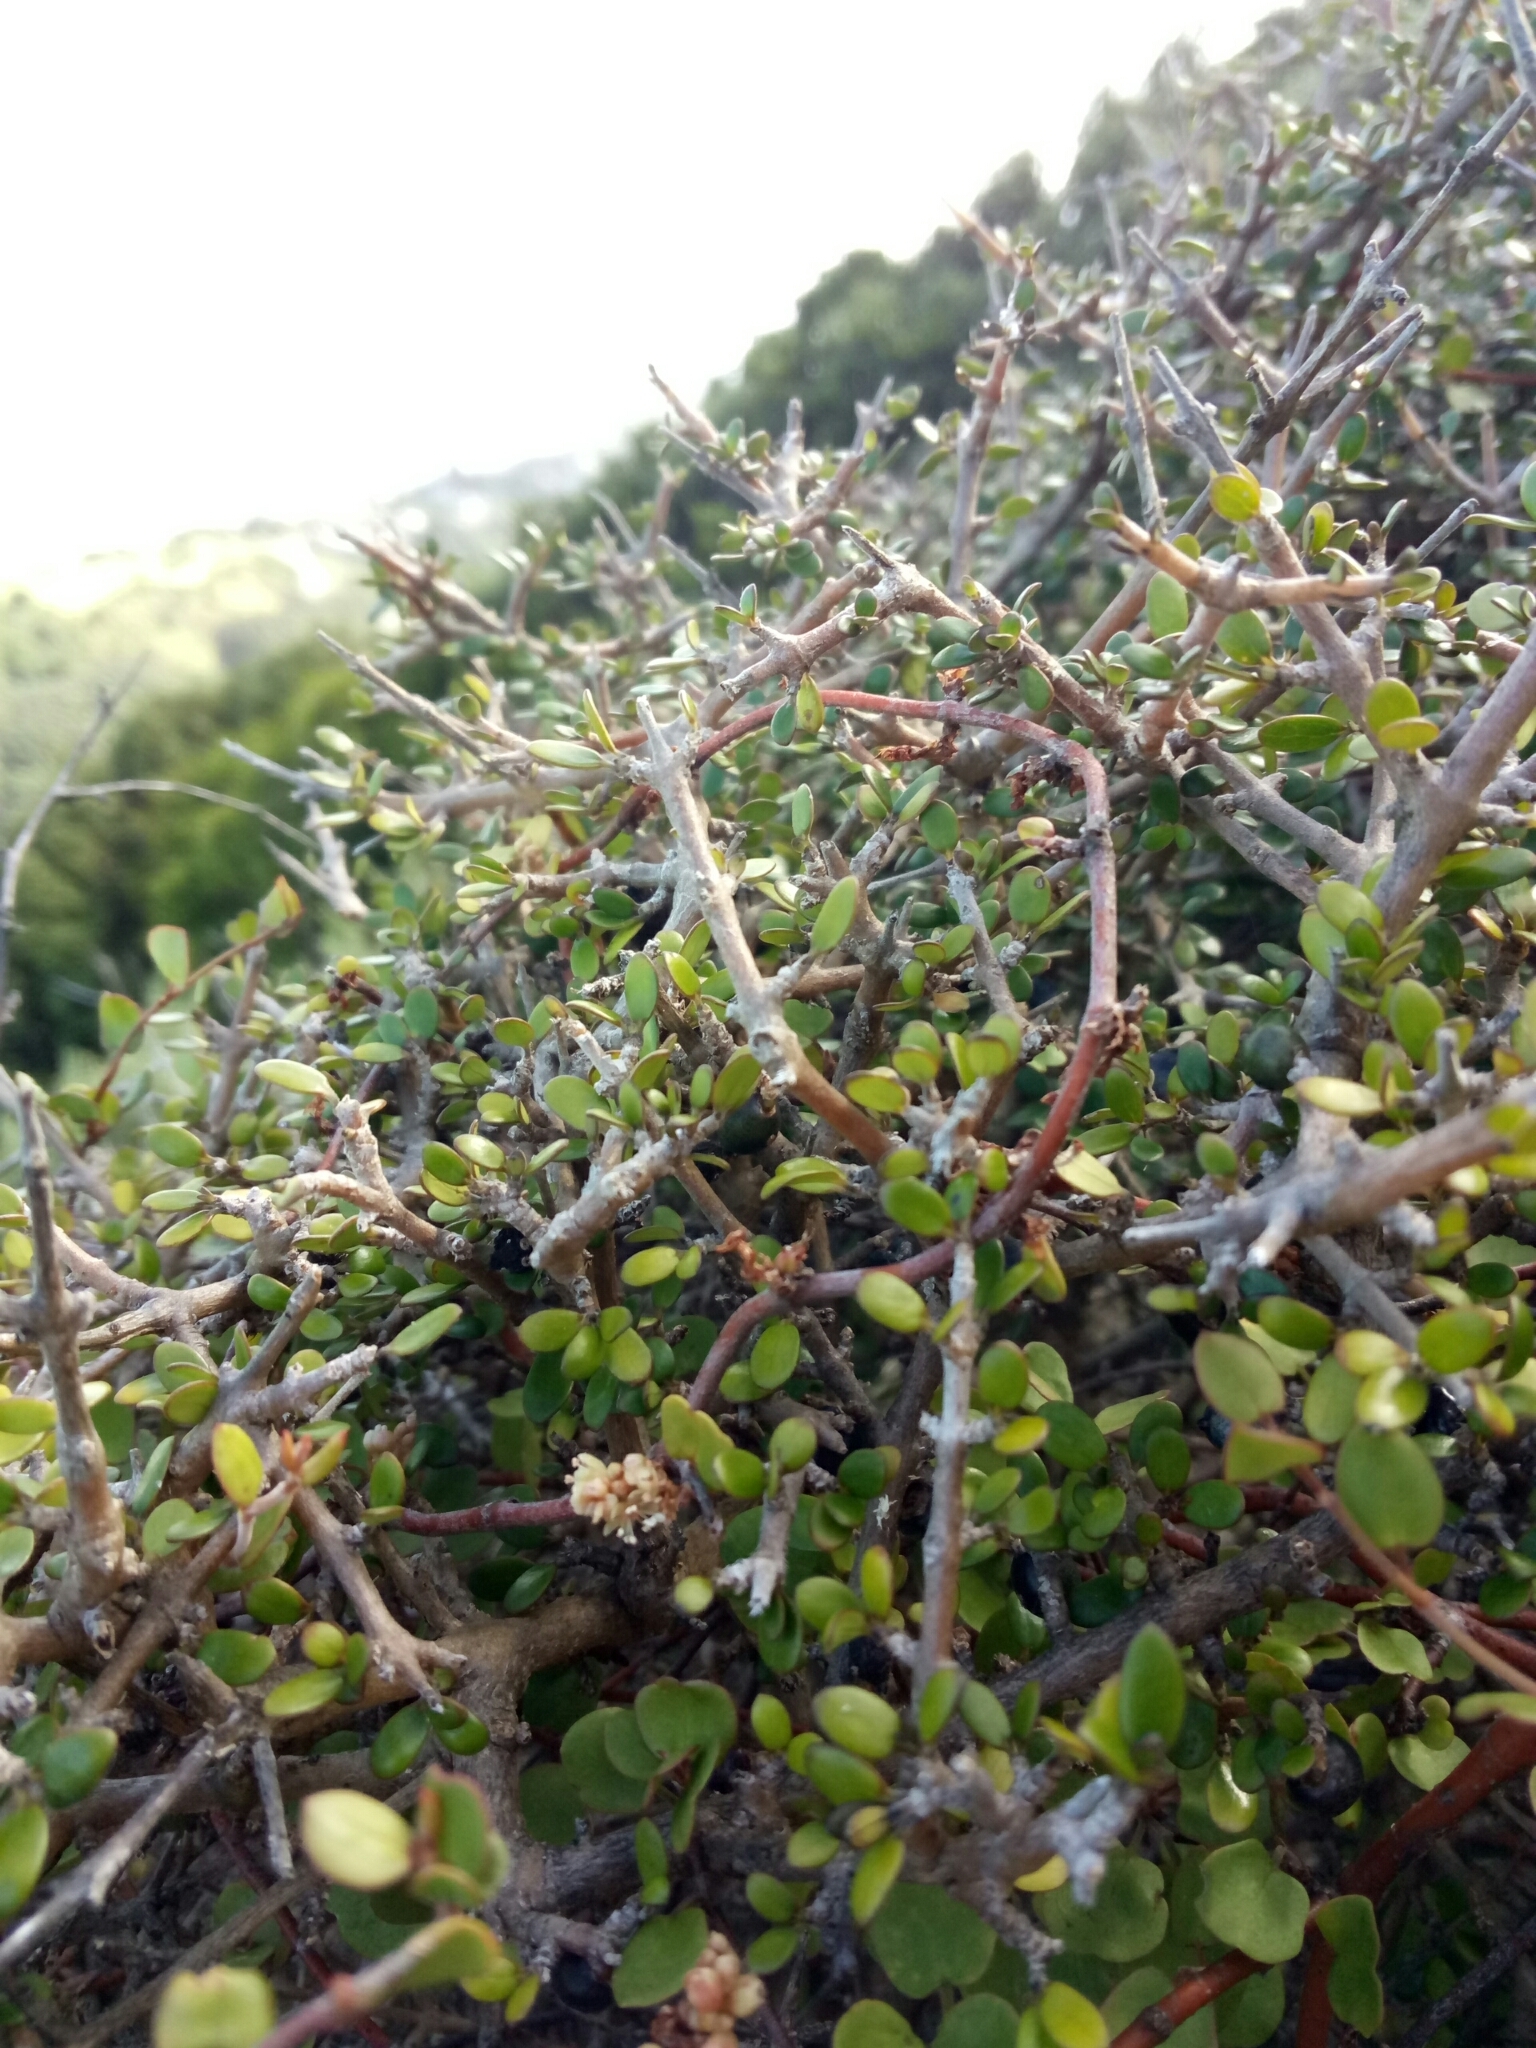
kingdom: Plantae
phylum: Tracheophyta
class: Magnoliopsida
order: Gentianales
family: Rubiaceae
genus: Coprosma
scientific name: Coprosma propinqua
